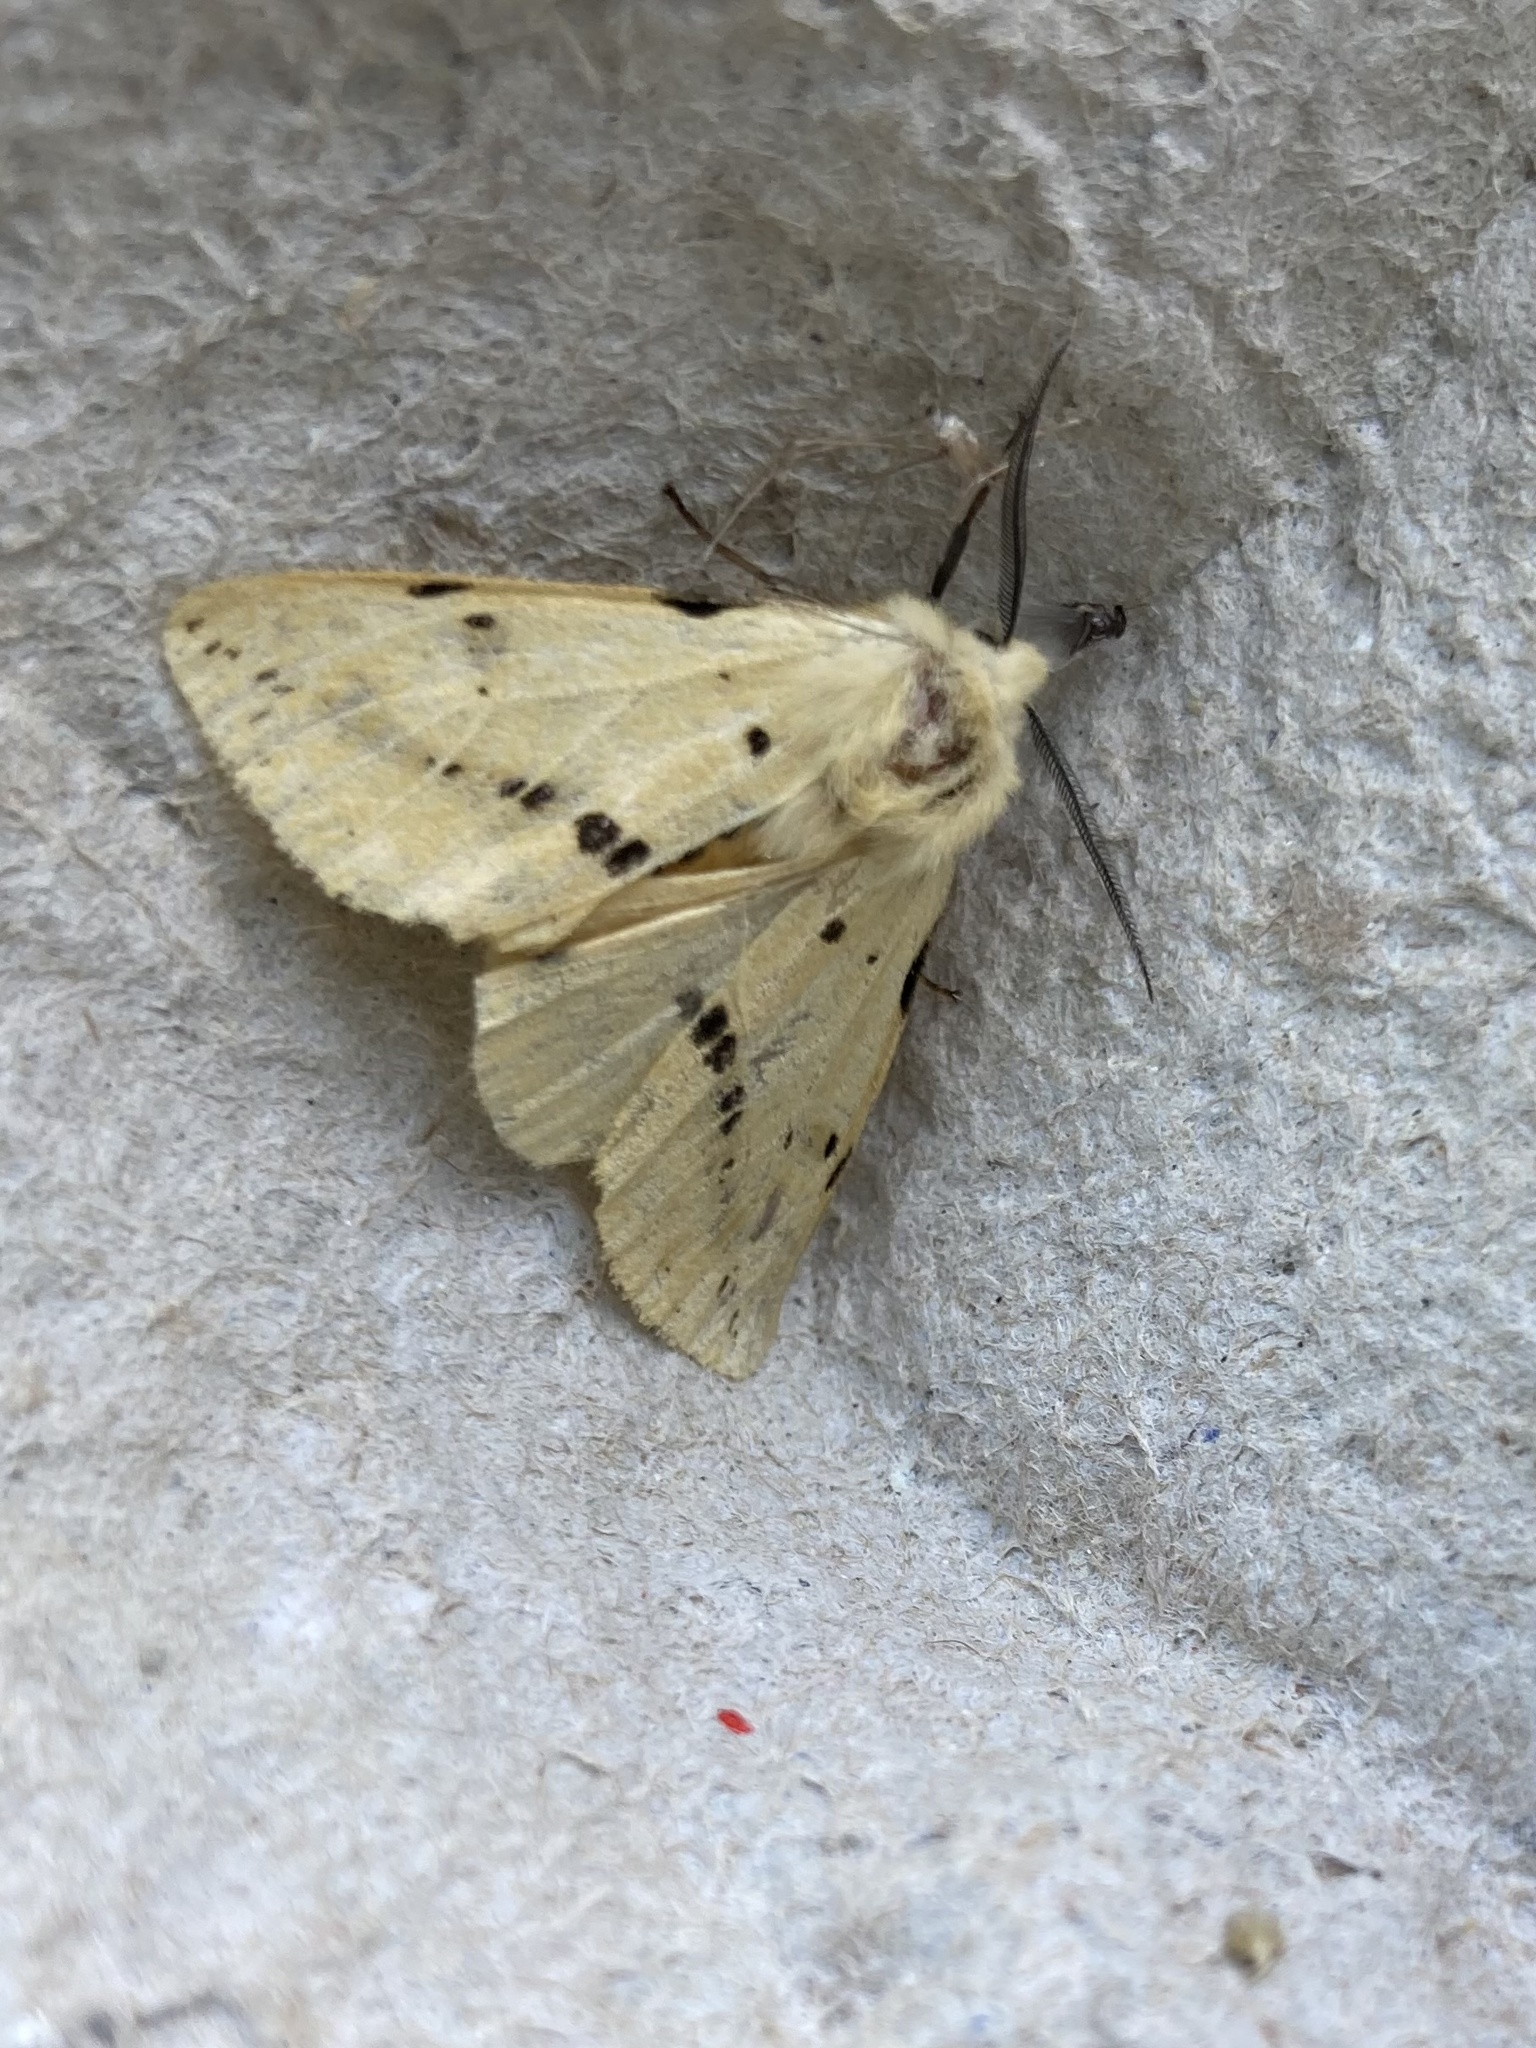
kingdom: Animalia
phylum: Arthropoda
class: Insecta
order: Lepidoptera
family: Erebidae
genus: Spilarctia
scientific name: Spilarctia lutea
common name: Buff ermine
